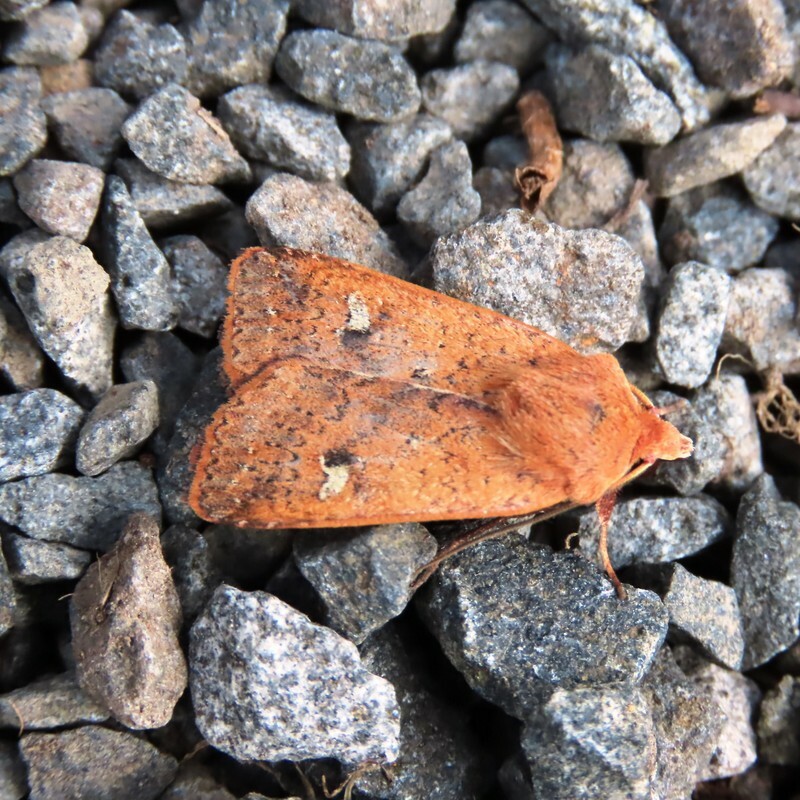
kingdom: Animalia
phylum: Arthropoda
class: Insecta
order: Lepidoptera
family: Noctuidae
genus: Diarsia
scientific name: Diarsia intermixta
